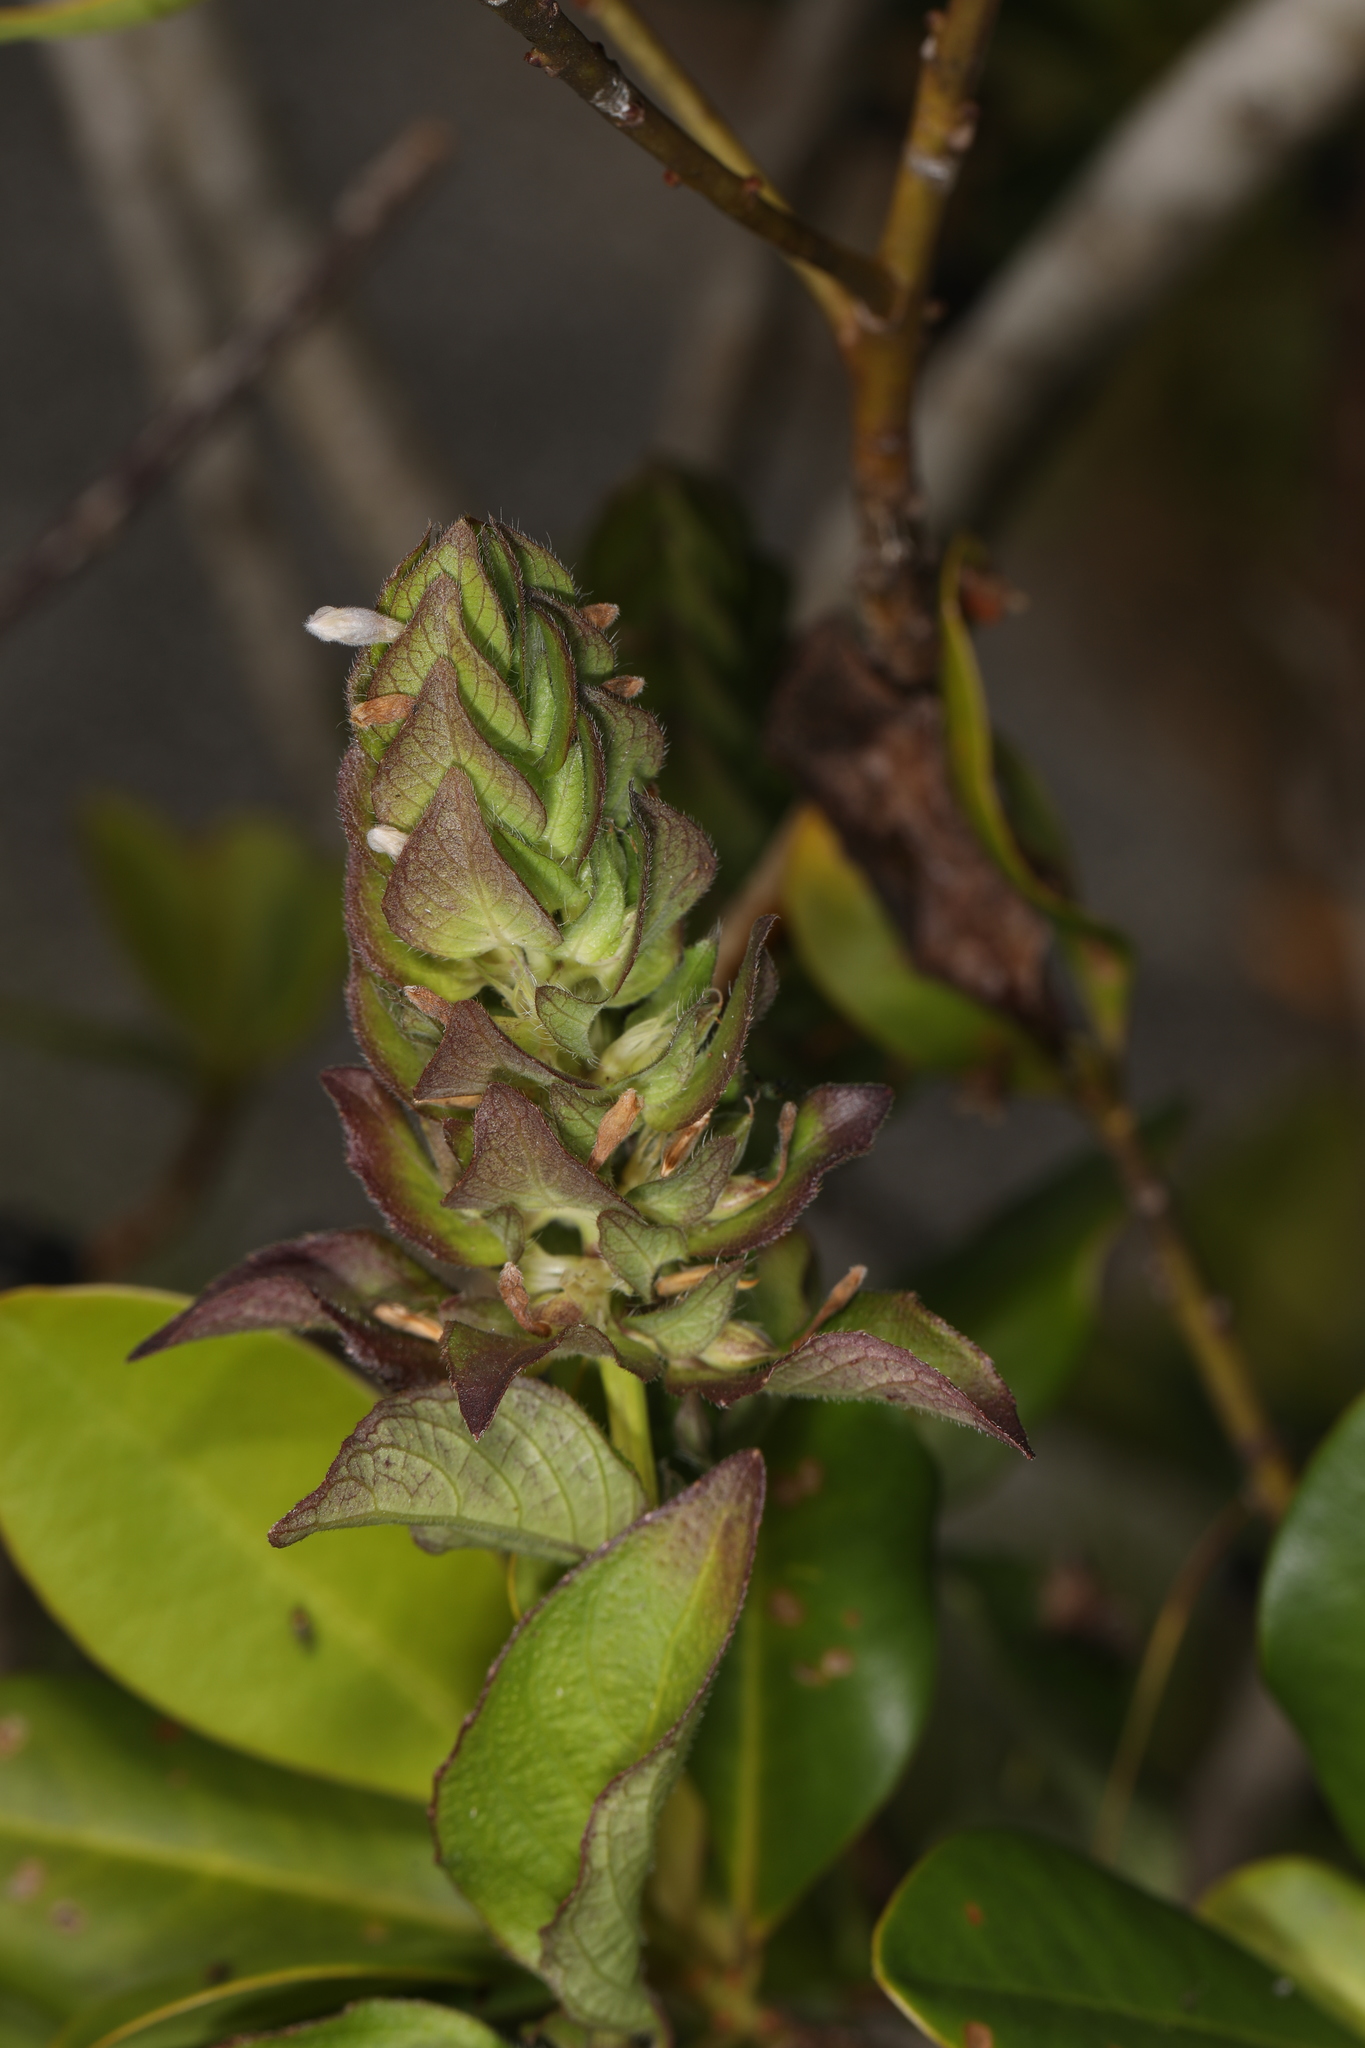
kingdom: Plantae
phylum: Tracheophyta
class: Magnoliopsida
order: Lamiales
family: Acanthaceae
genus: Ruellia
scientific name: Ruellia blechum
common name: Browne's blechum
